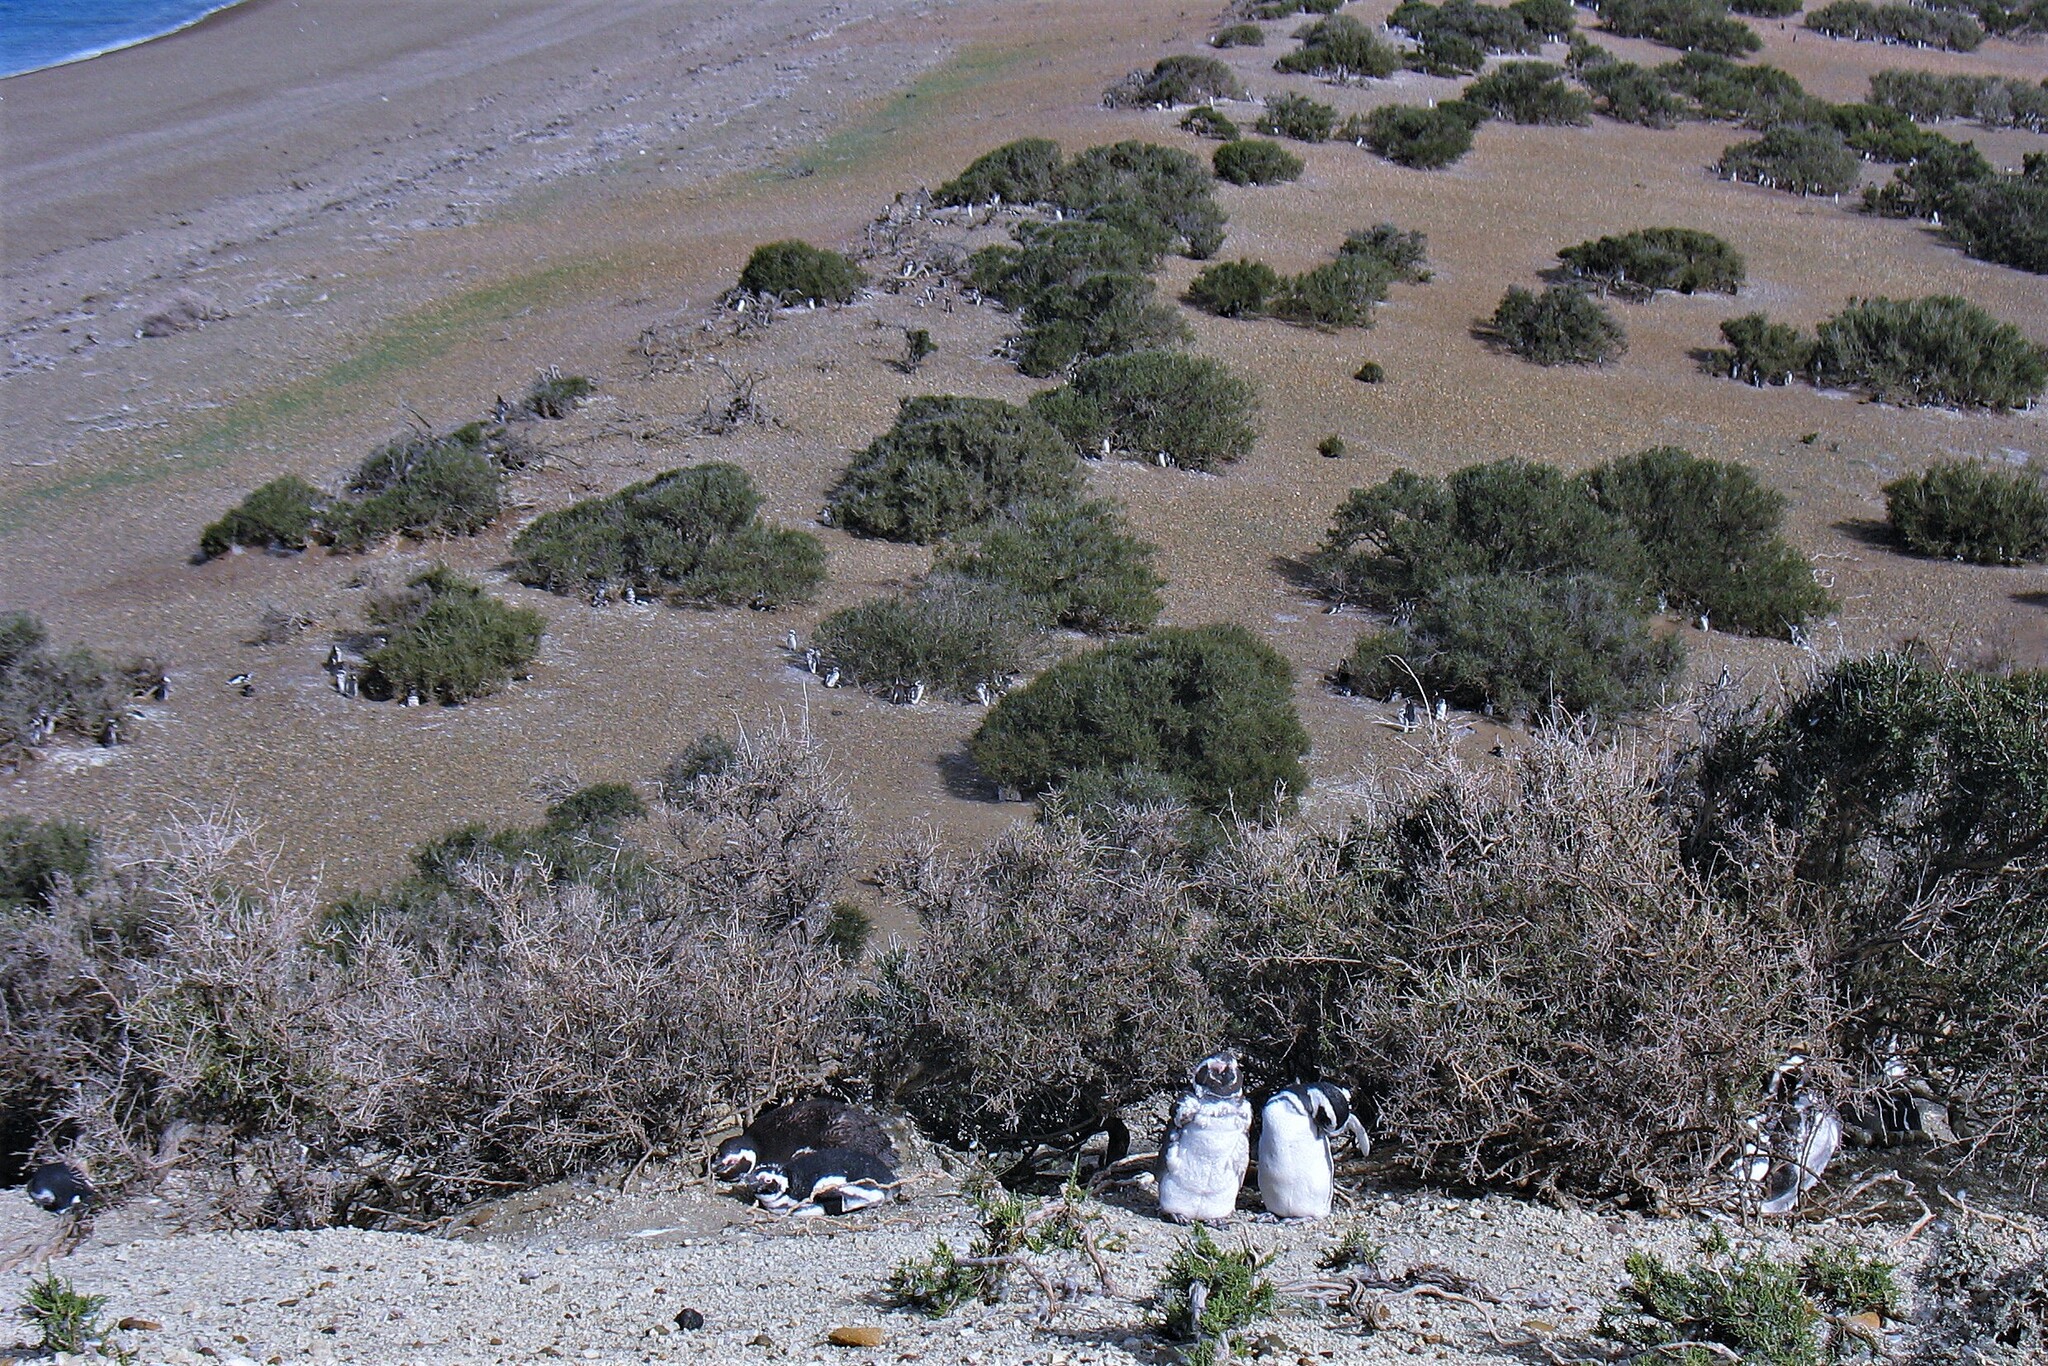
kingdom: Animalia
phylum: Chordata
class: Aves
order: Sphenisciformes
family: Spheniscidae
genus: Spheniscus
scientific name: Spheniscus magellanicus
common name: Magellanic penguin
